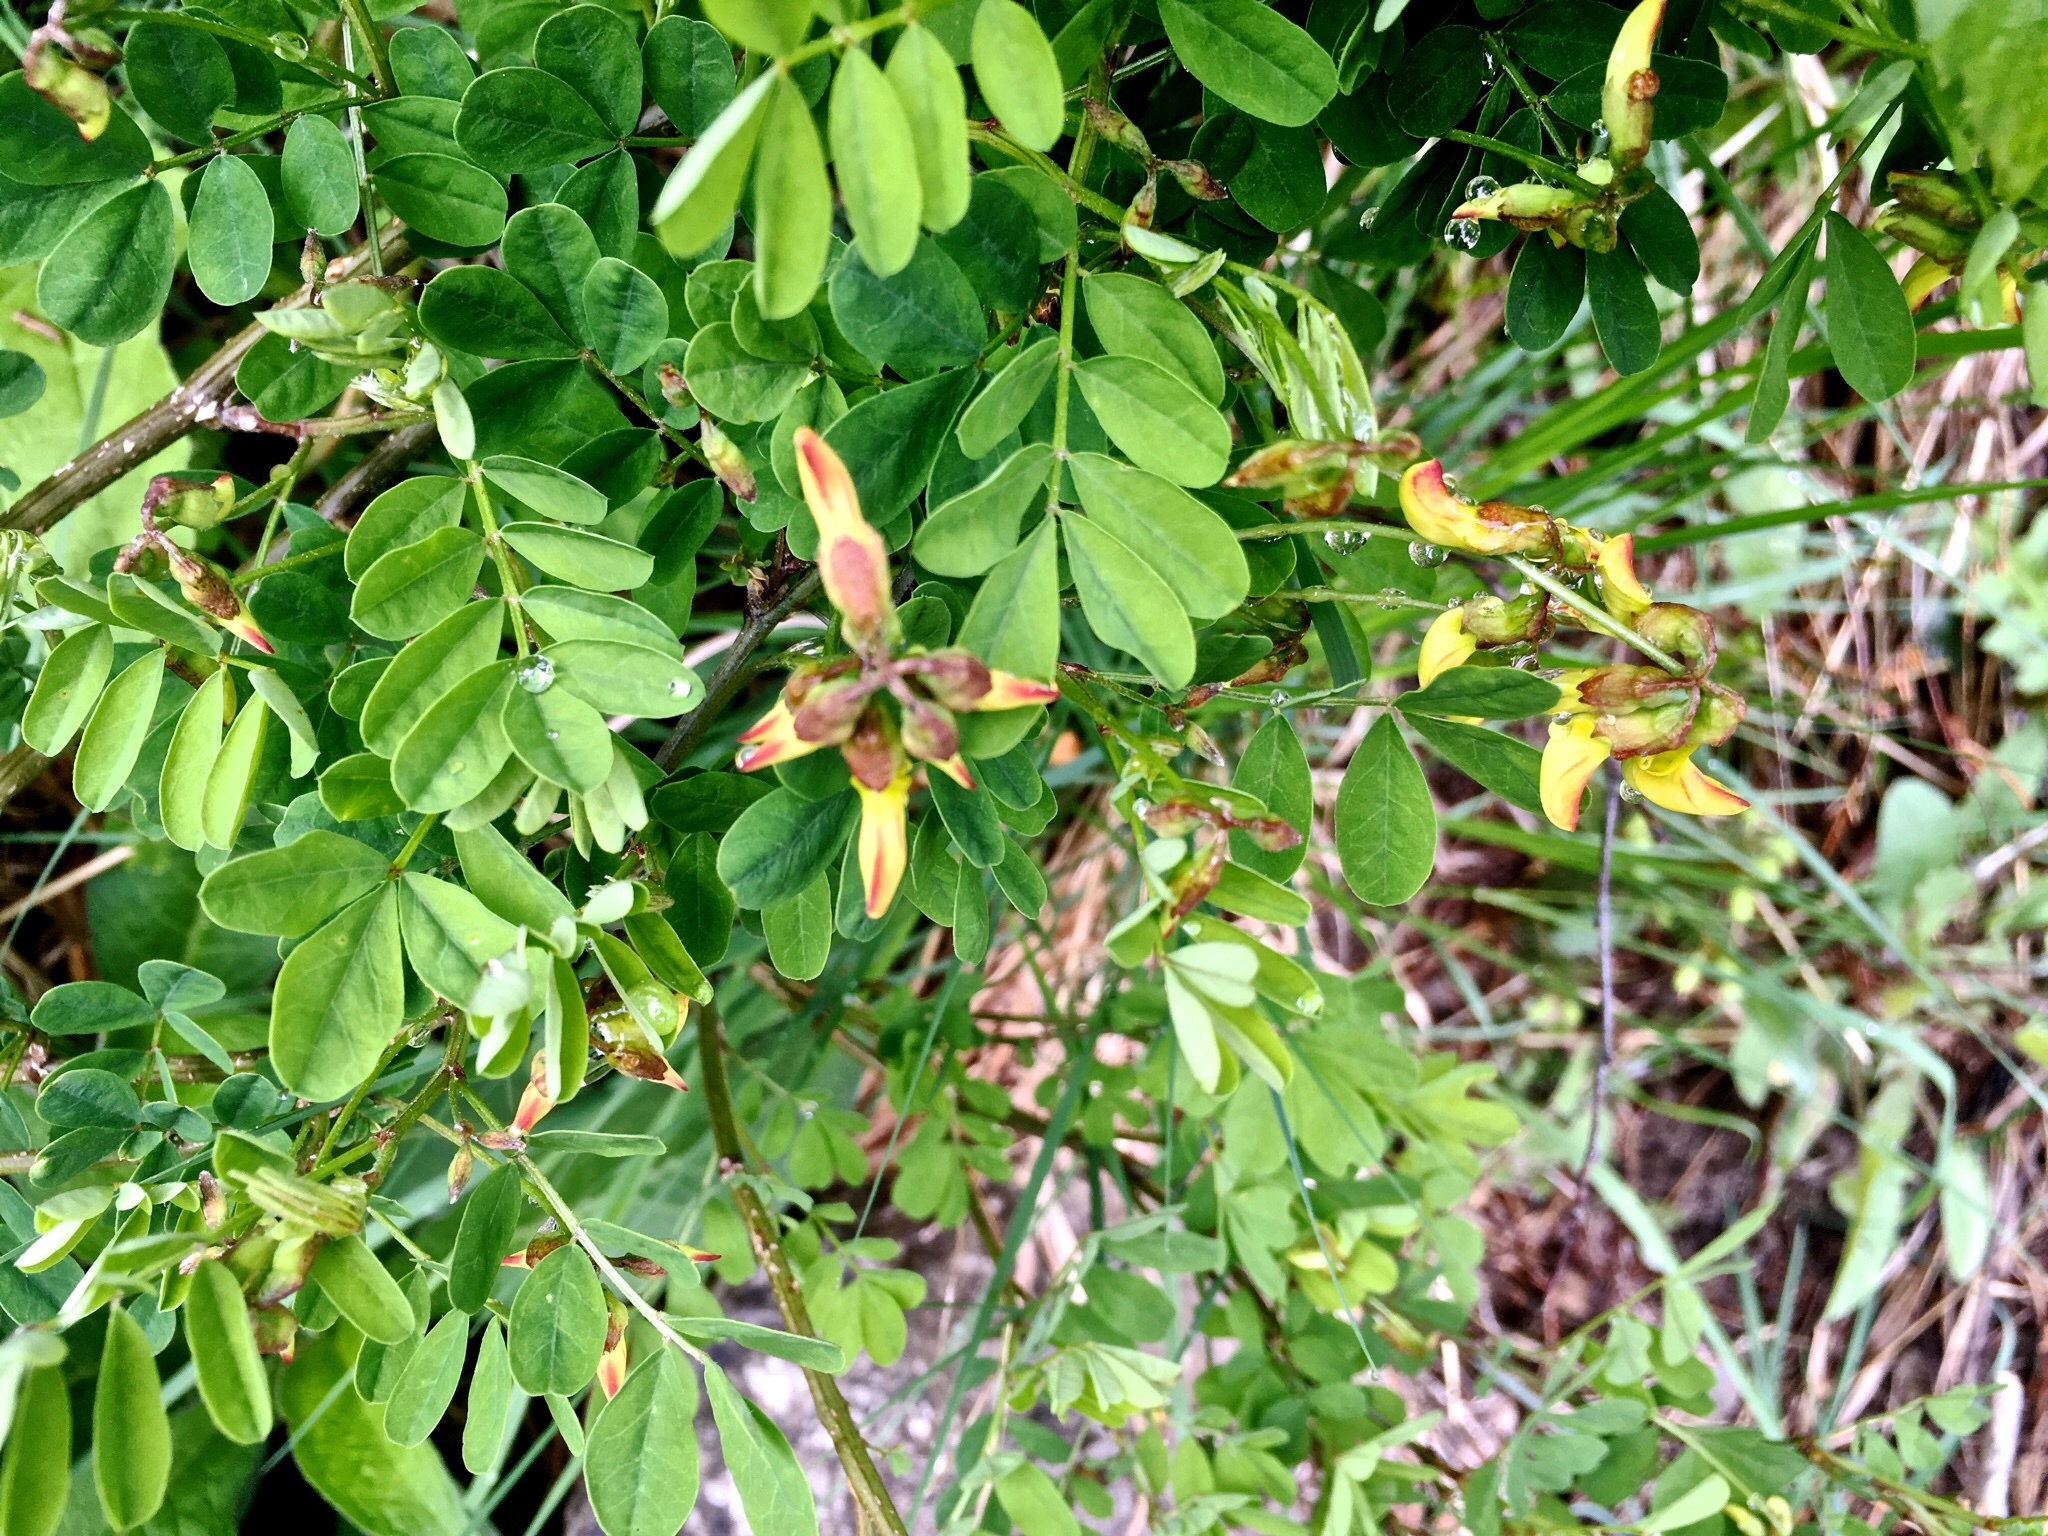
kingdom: Plantae
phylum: Tracheophyta
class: Magnoliopsida
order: Fabales
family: Fabaceae
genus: Hippocrepis
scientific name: Hippocrepis emerus
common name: Scorpion senna
